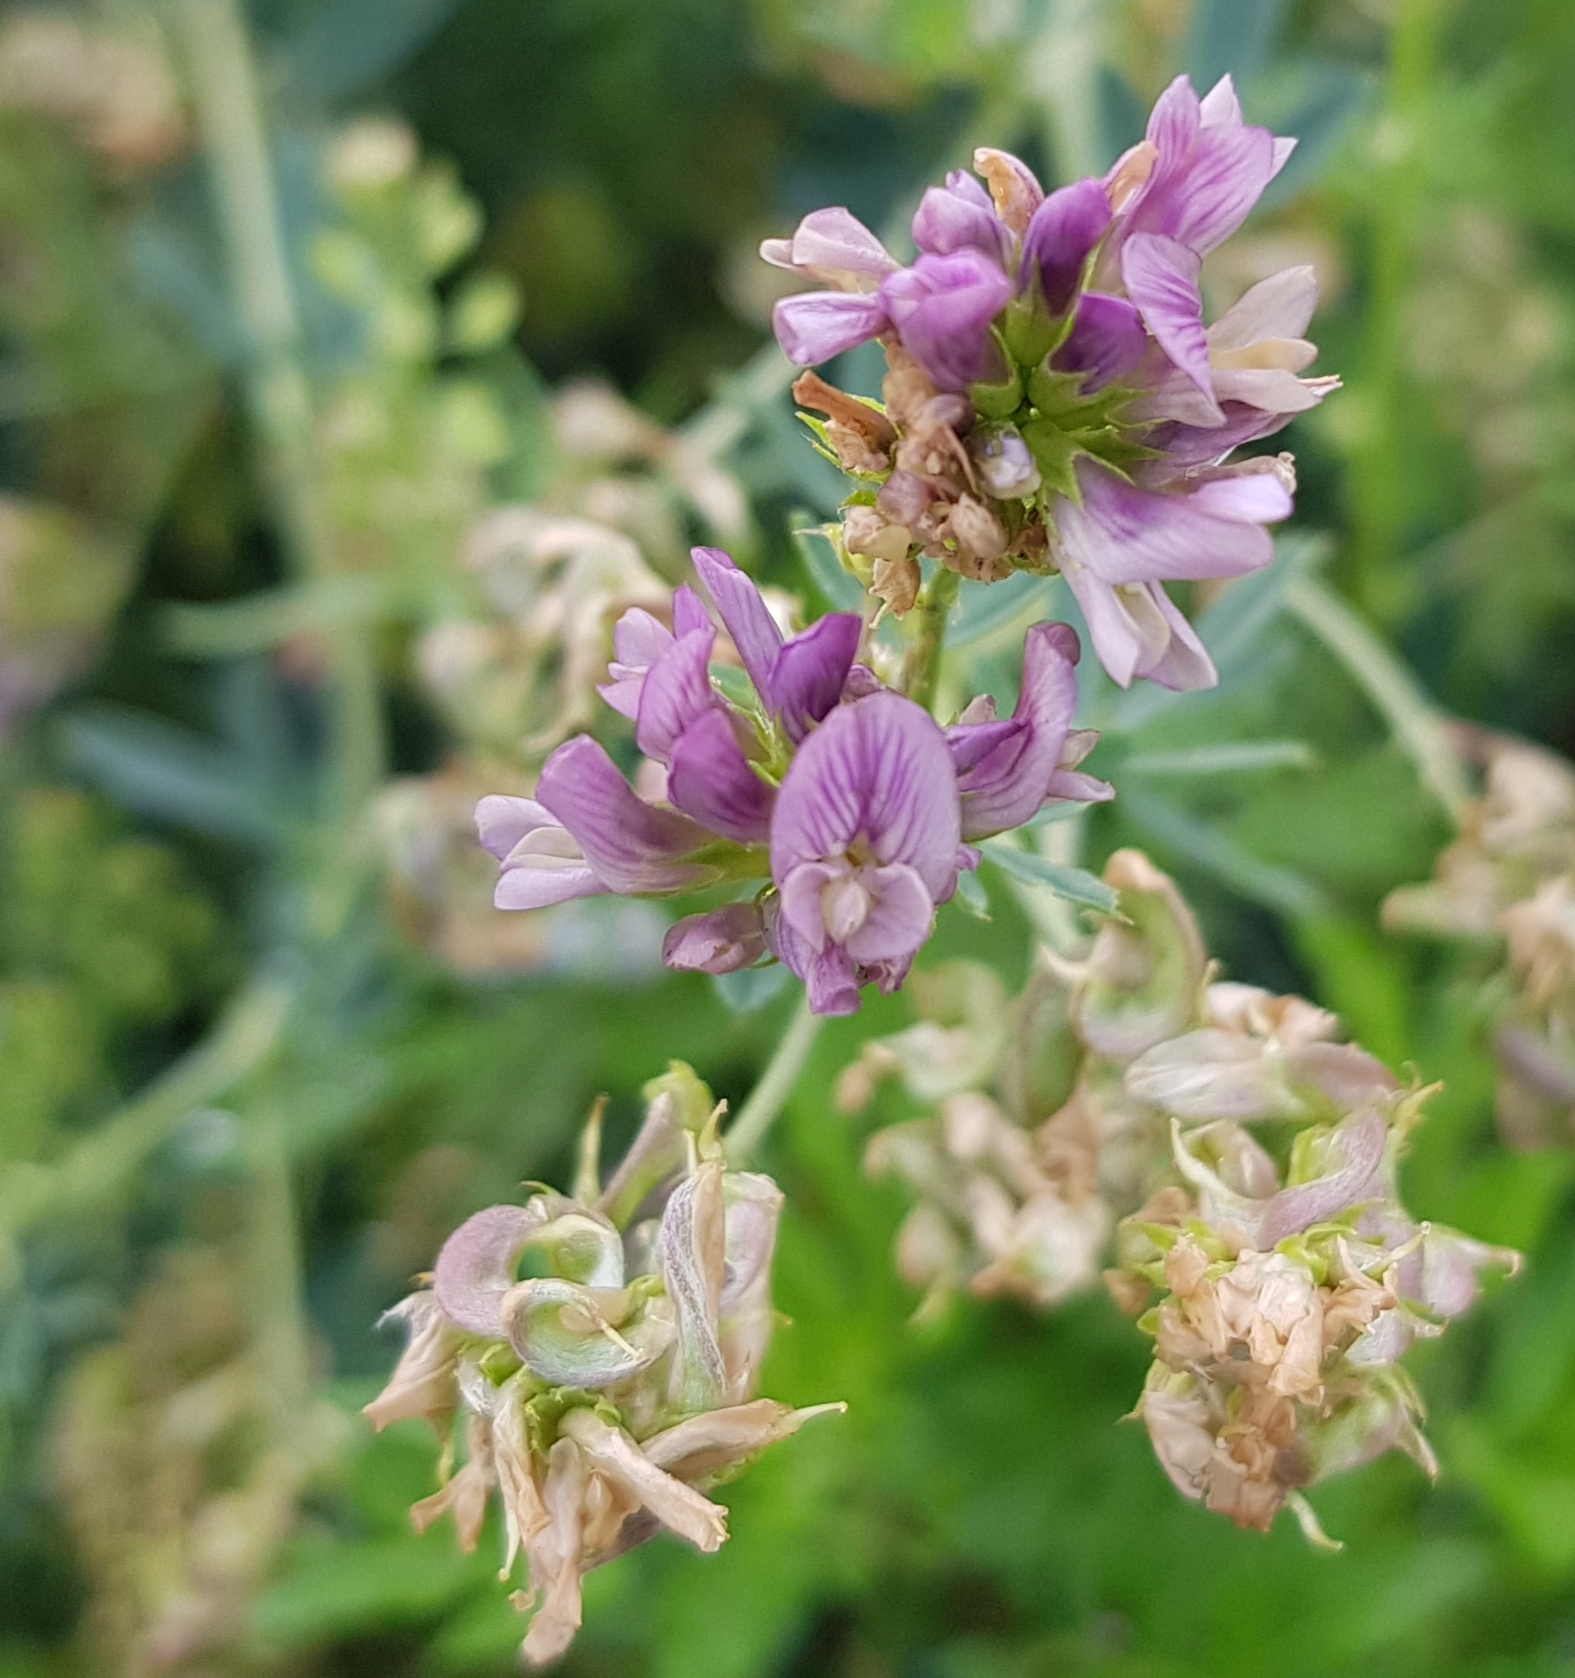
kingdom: Plantae
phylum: Tracheophyta
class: Magnoliopsida
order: Fabales
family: Fabaceae
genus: Medicago
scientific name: Medicago sativa
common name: Alfalfa
